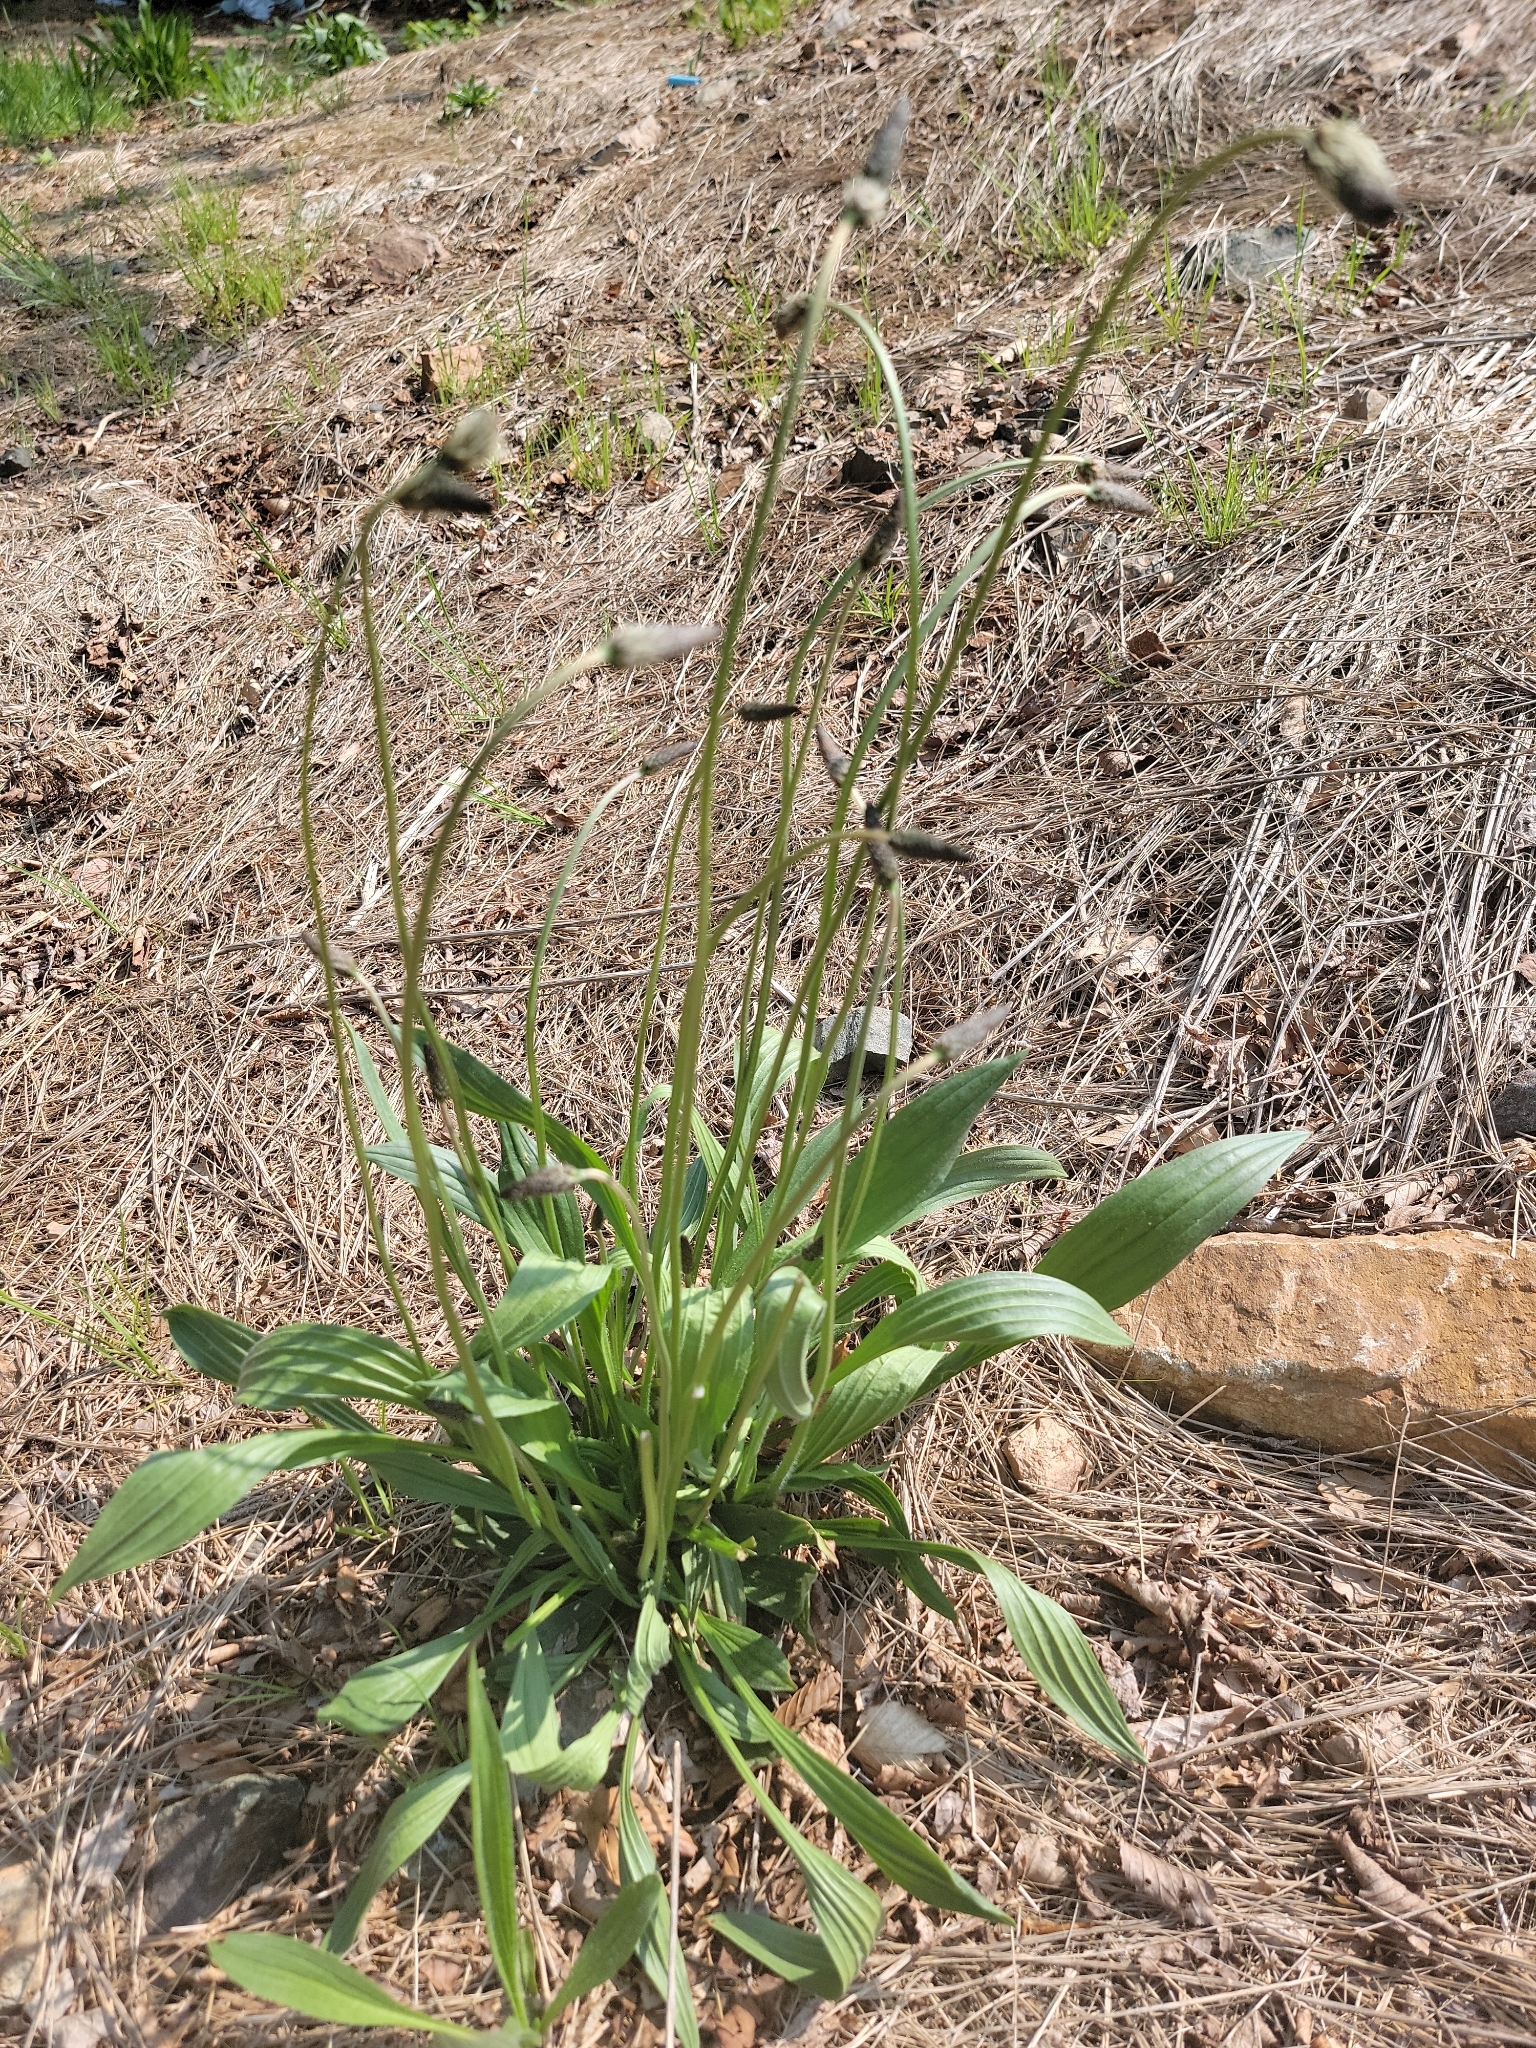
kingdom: Plantae
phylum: Tracheophyta
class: Magnoliopsida
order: Lamiales
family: Plantaginaceae
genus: Plantago
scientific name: Plantago lanceolata
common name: Ribwort plantain
